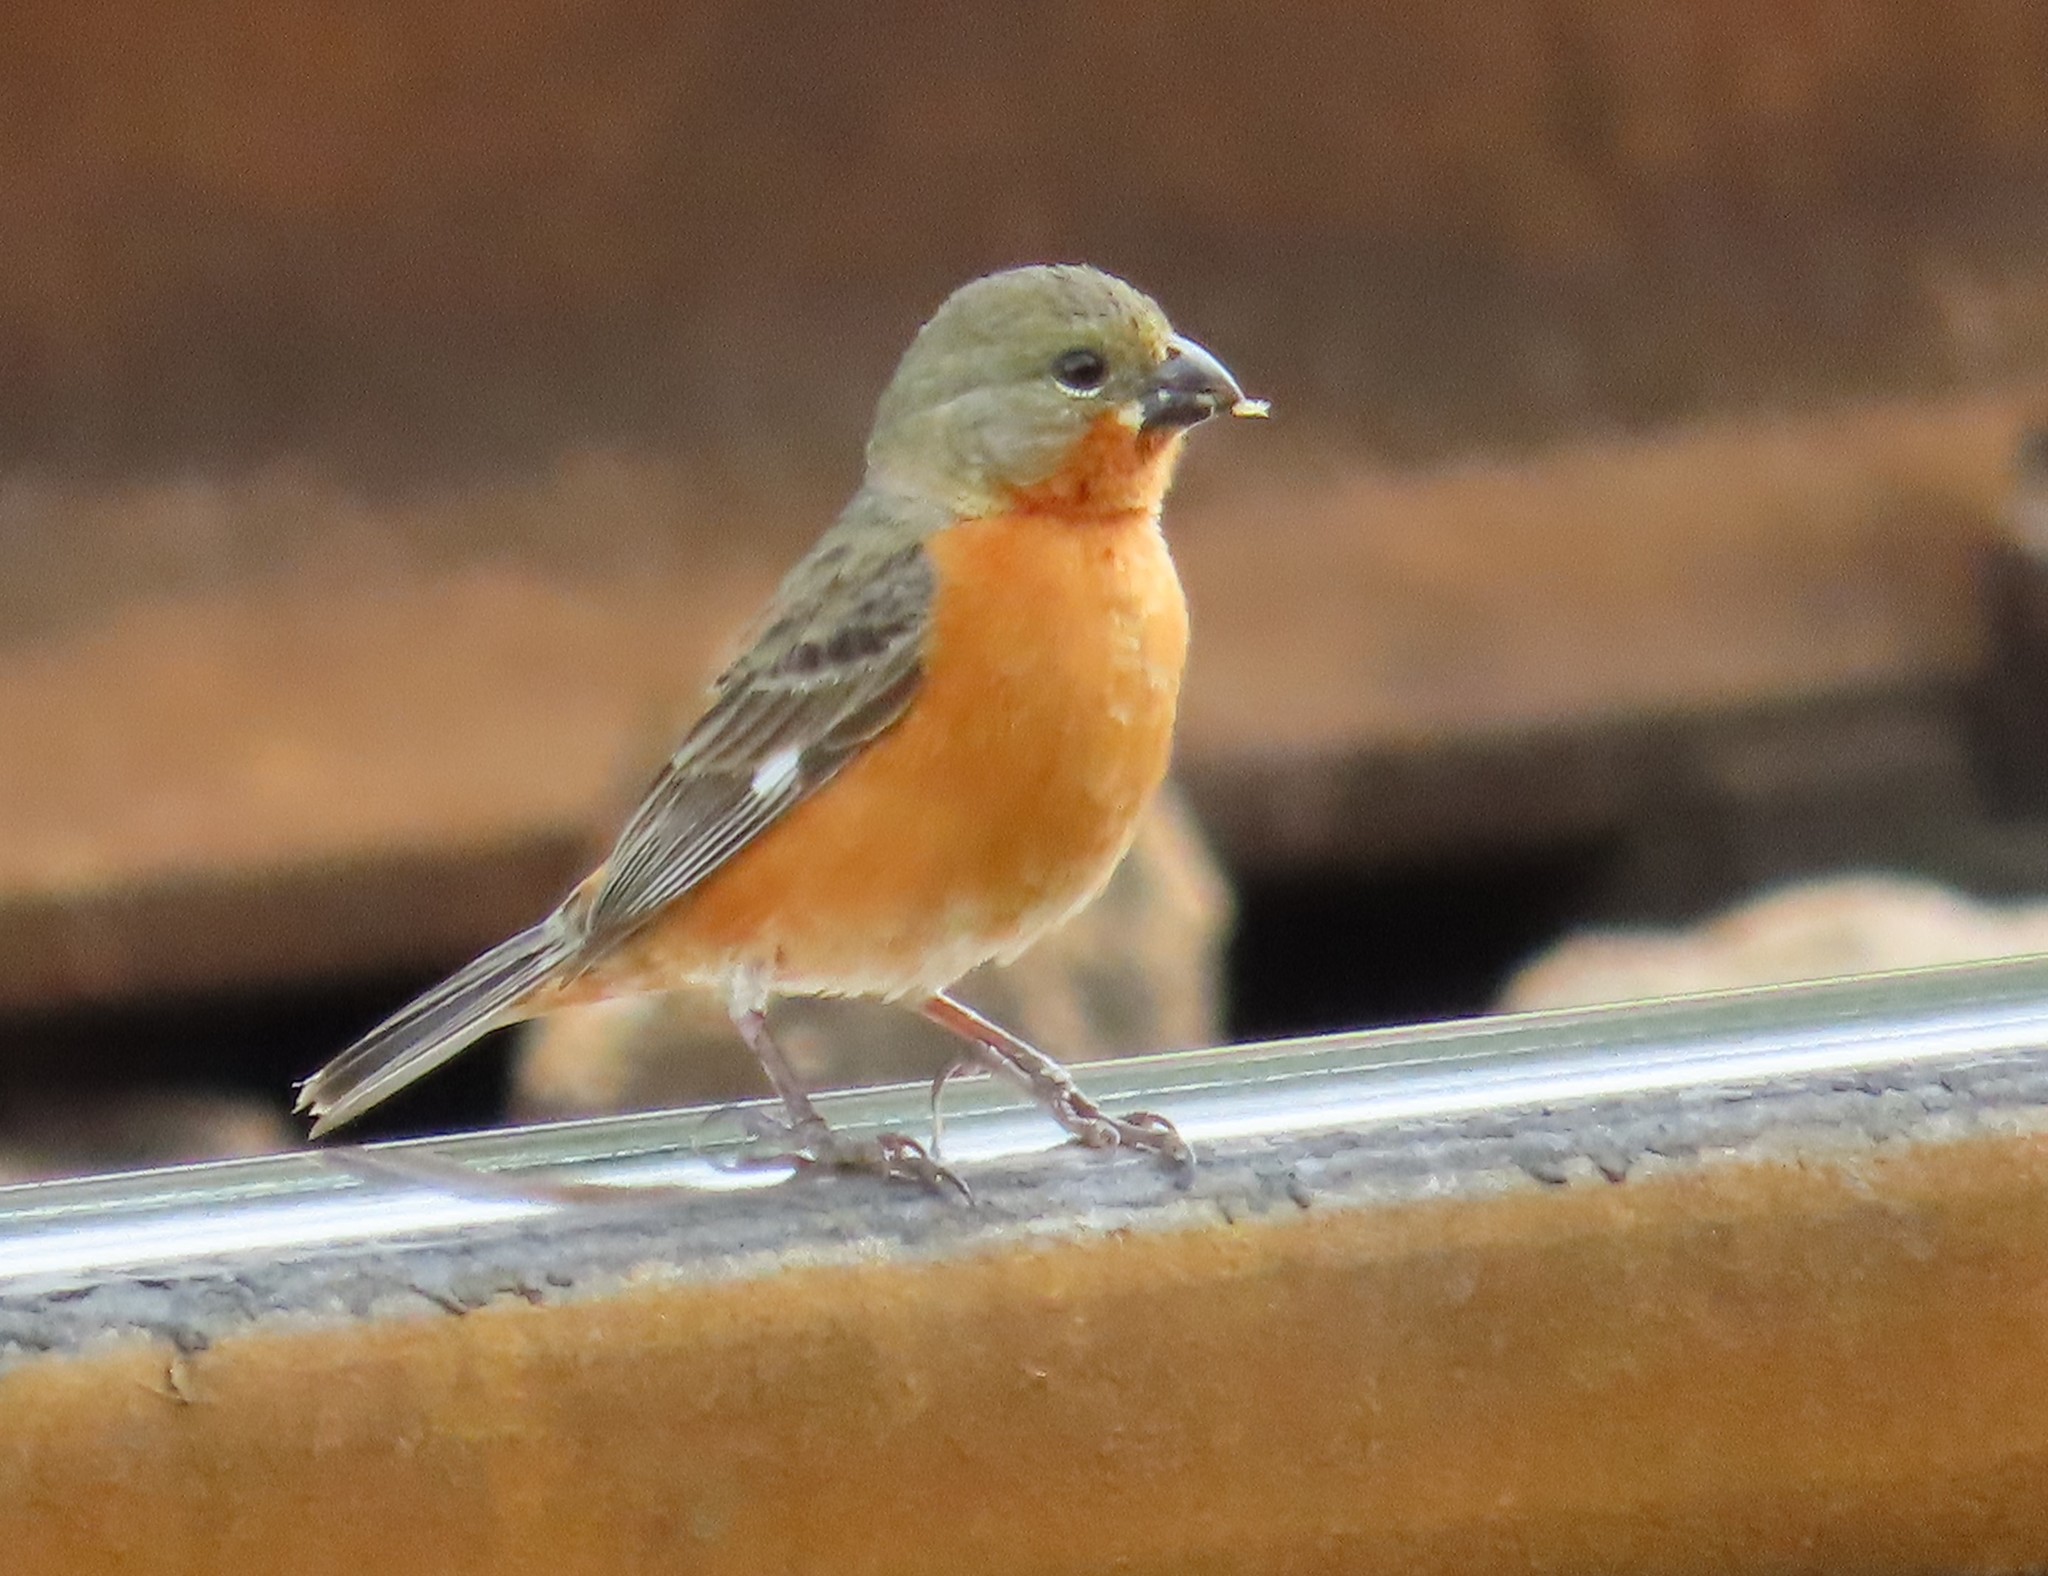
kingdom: Animalia
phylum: Chordata
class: Aves
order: Passeriformes
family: Thraupidae
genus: Sporophila
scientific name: Sporophila minuta
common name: Ruddy-breasted seedeater
